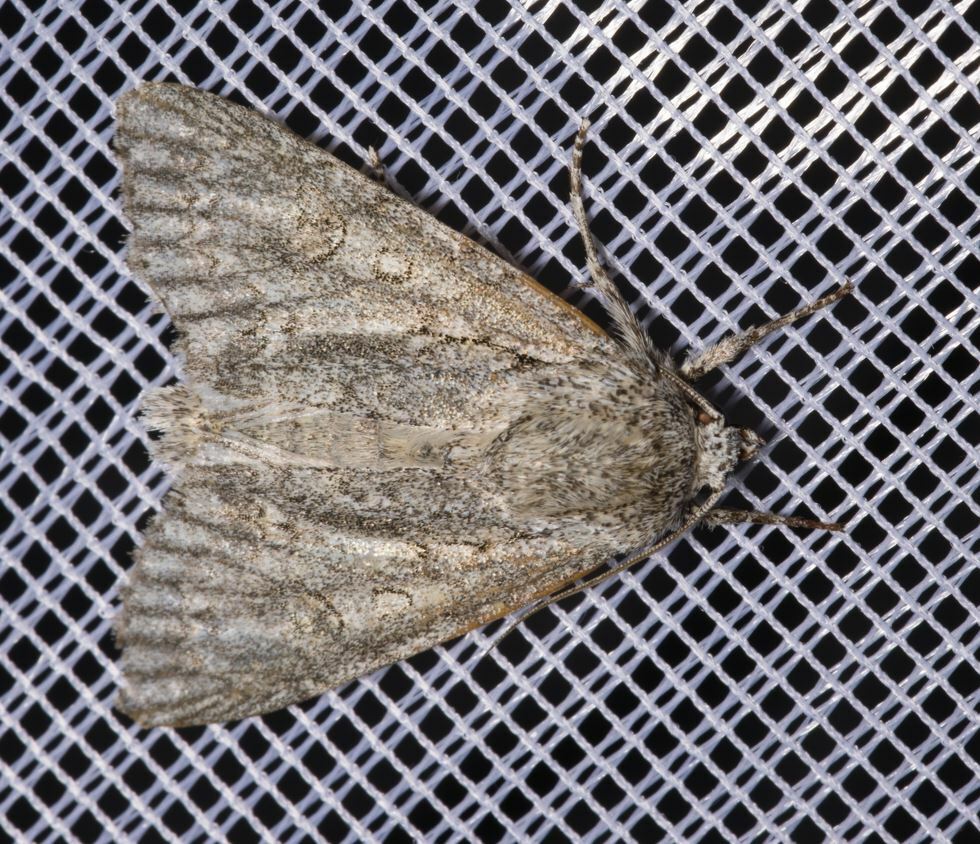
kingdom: Animalia
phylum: Arthropoda
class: Insecta
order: Lepidoptera
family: Noctuidae
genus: Acronicta
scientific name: Acronicta aceris
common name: Sycamore
